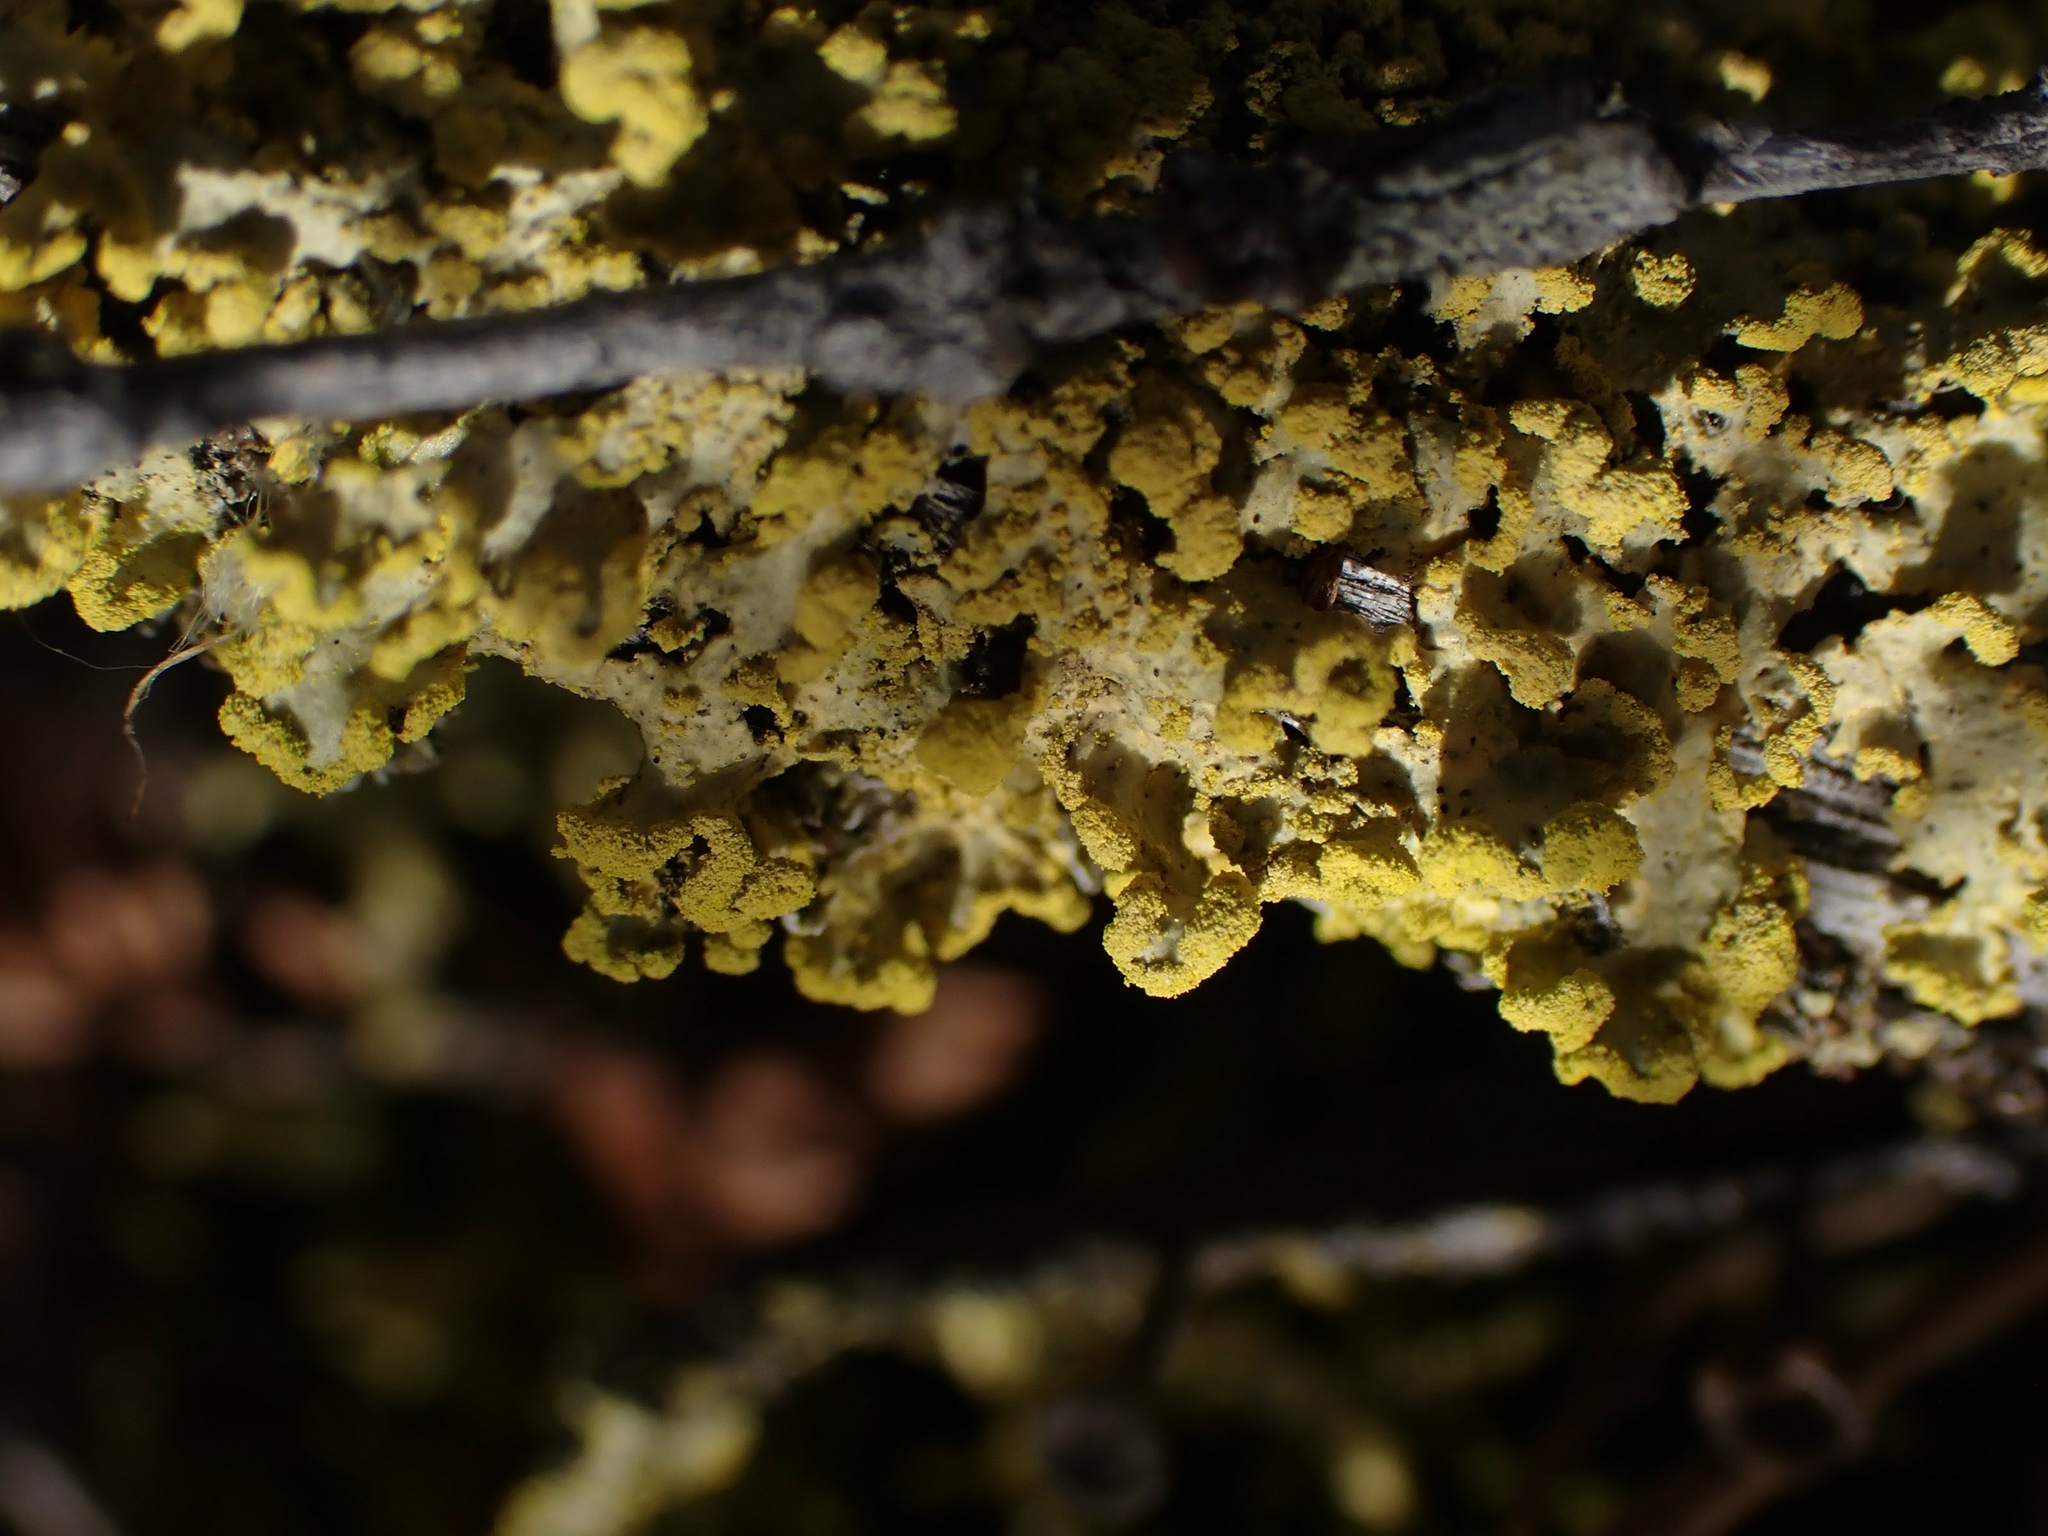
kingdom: Fungi
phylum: Ascomycota
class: Lecanoromycetes
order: Lecanorales
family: Parmeliaceae
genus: Vulpicida
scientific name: Vulpicida pinastri
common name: Powdered sunshine lichen
